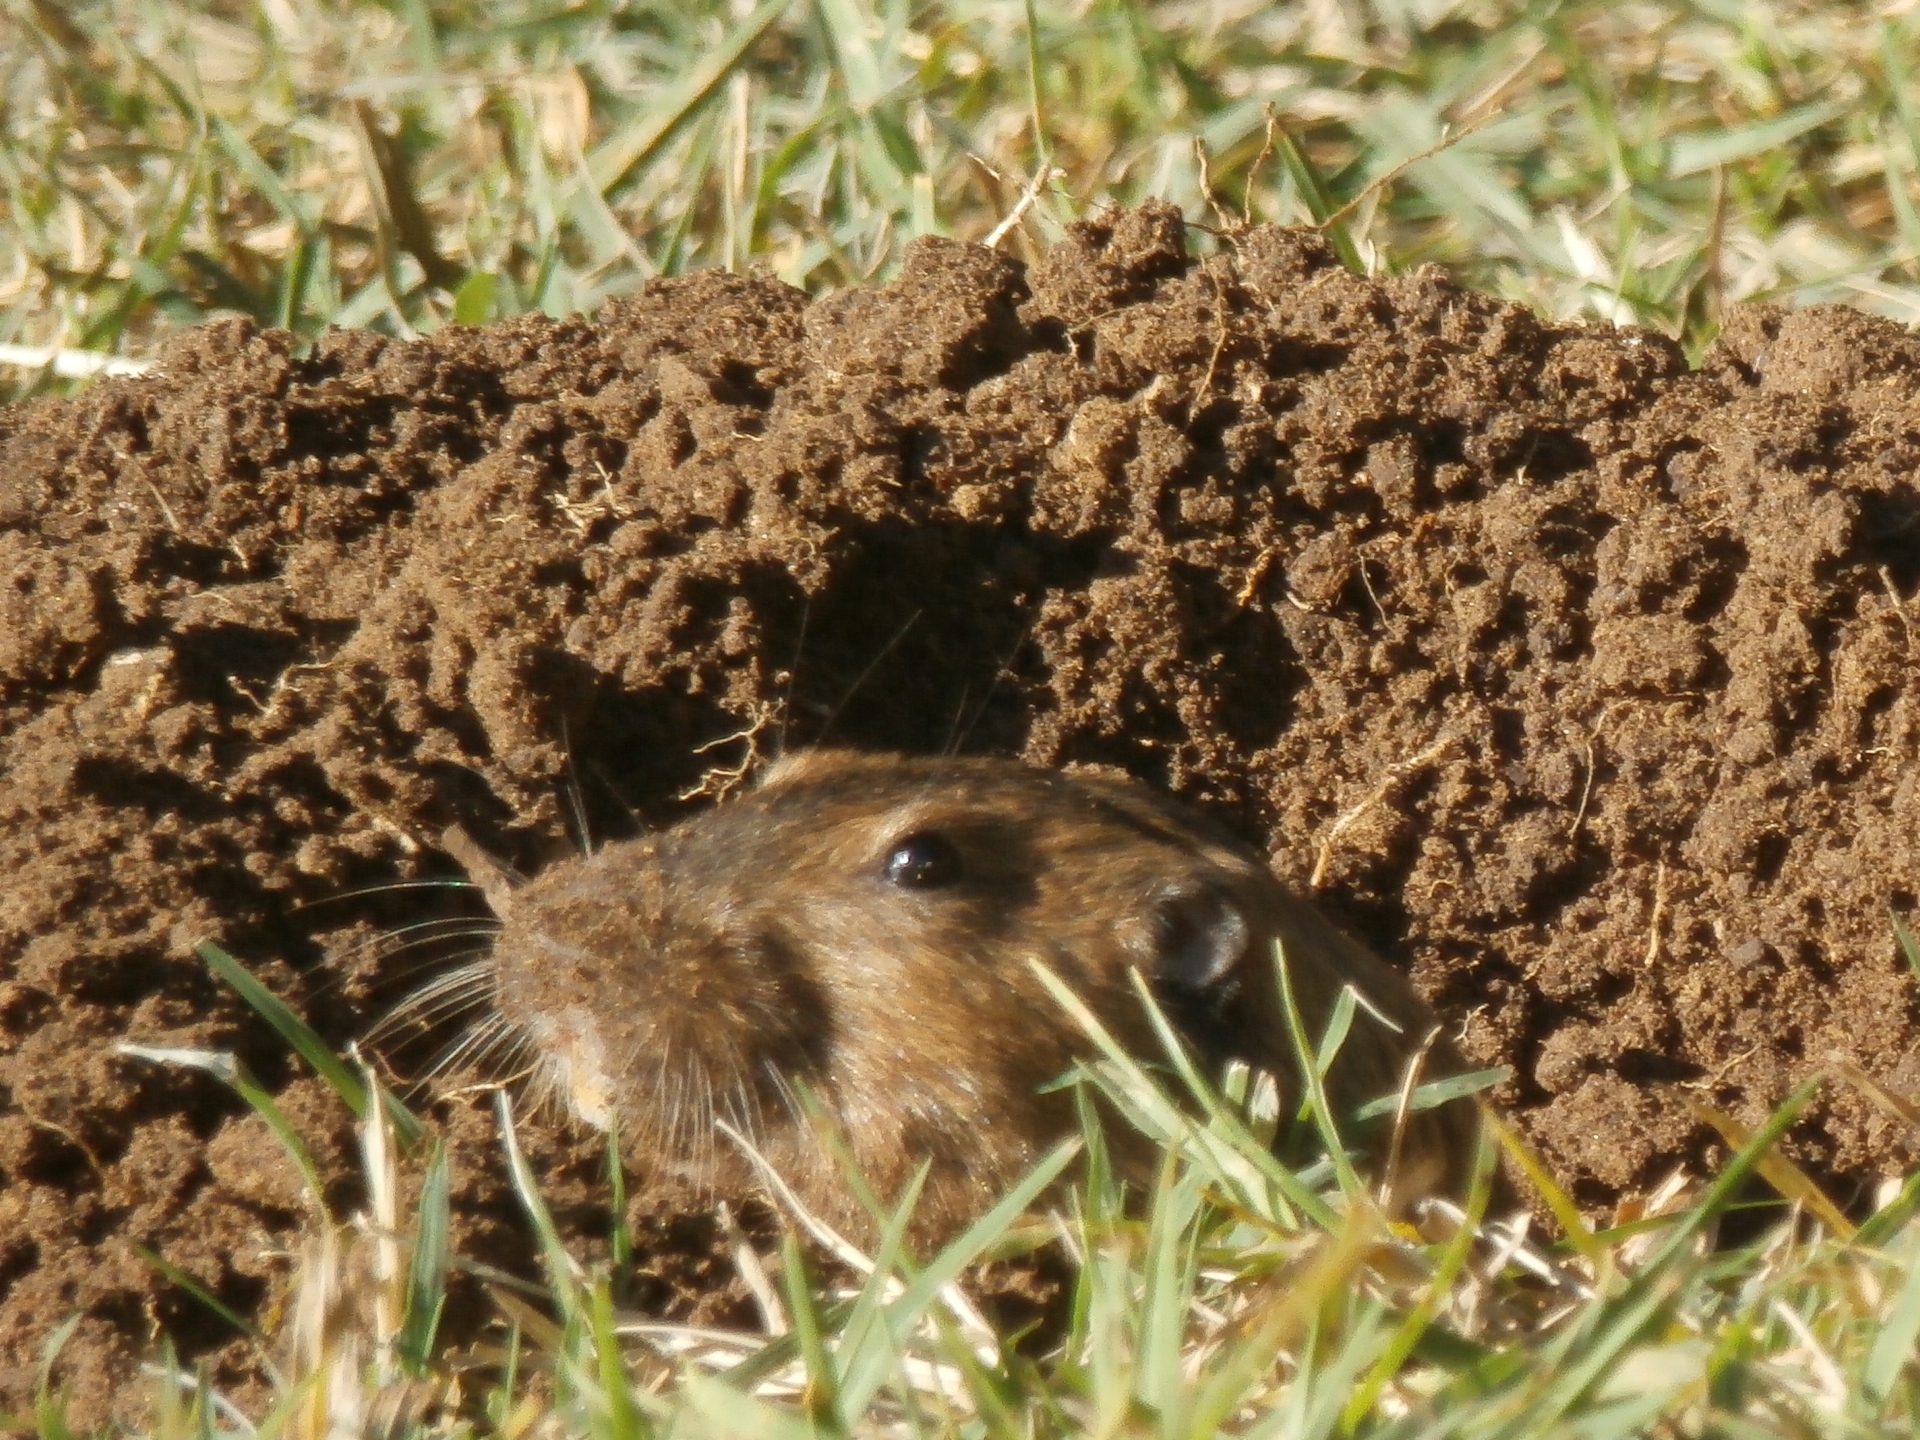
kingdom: Animalia
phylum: Chordata
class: Mammalia
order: Rodentia
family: Geomyidae
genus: Thomomys
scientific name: Thomomys bottae
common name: Botta's pocket gopher
